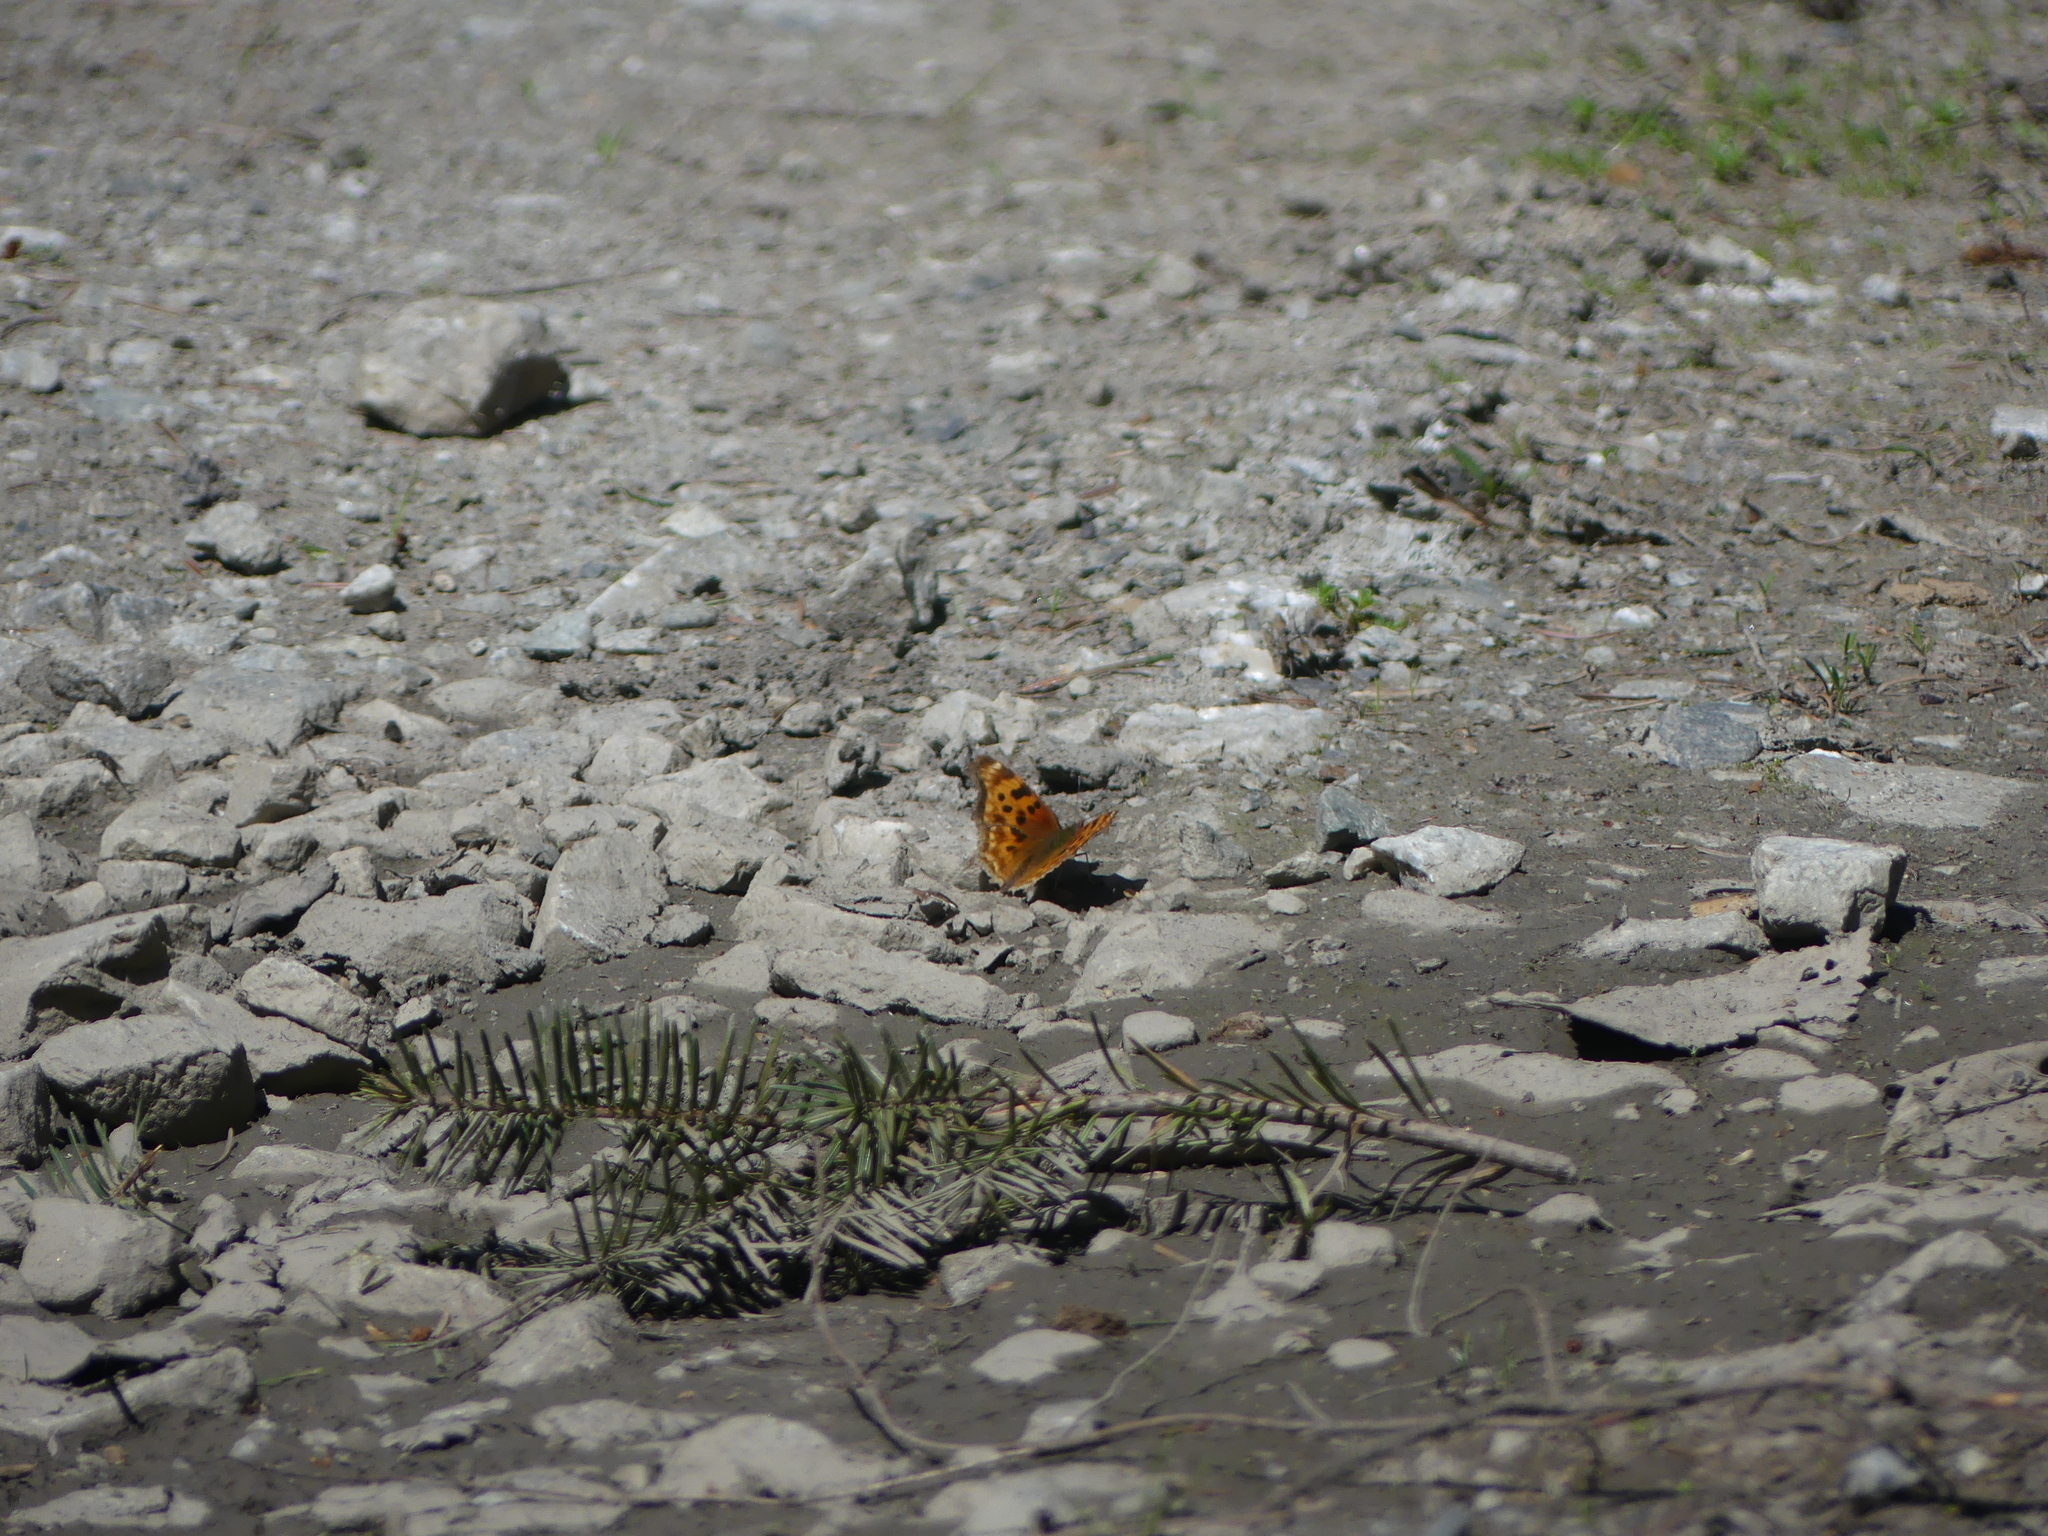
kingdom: Animalia
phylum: Arthropoda
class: Insecta
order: Lepidoptera
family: Nymphalidae
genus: Polygonia
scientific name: Polygonia satyrus
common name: Satyr angle wing
